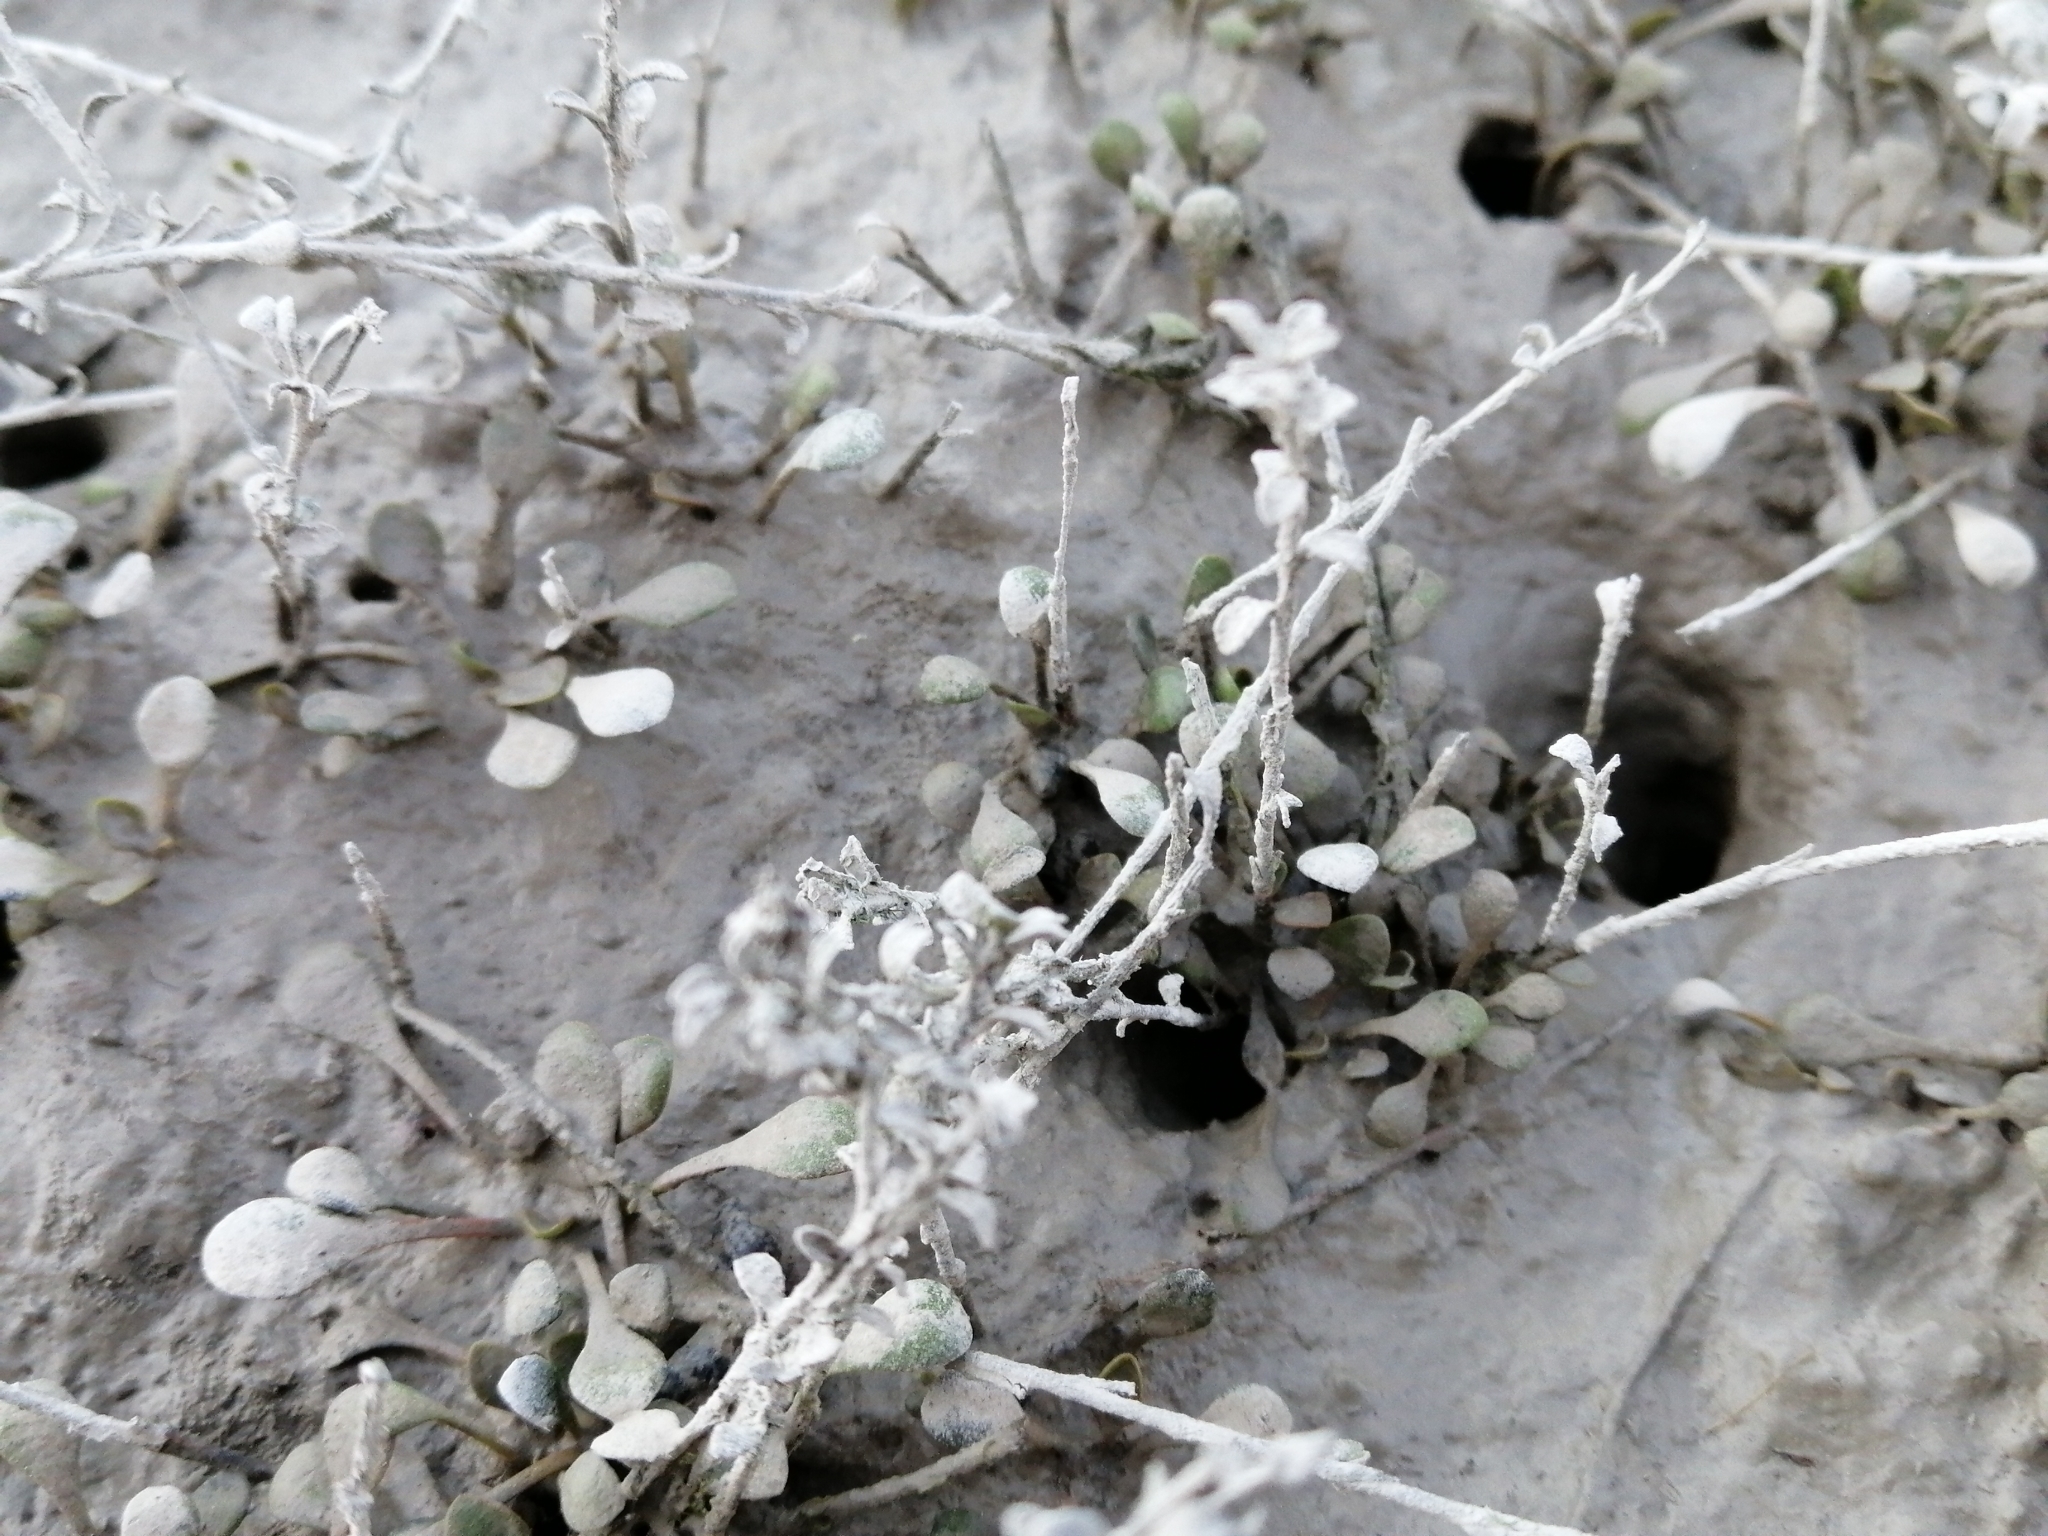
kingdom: Animalia
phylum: Arthropoda
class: Malacostraca
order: Decapoda
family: Varunidae
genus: Austrohelice
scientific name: Austrohelice crassa
